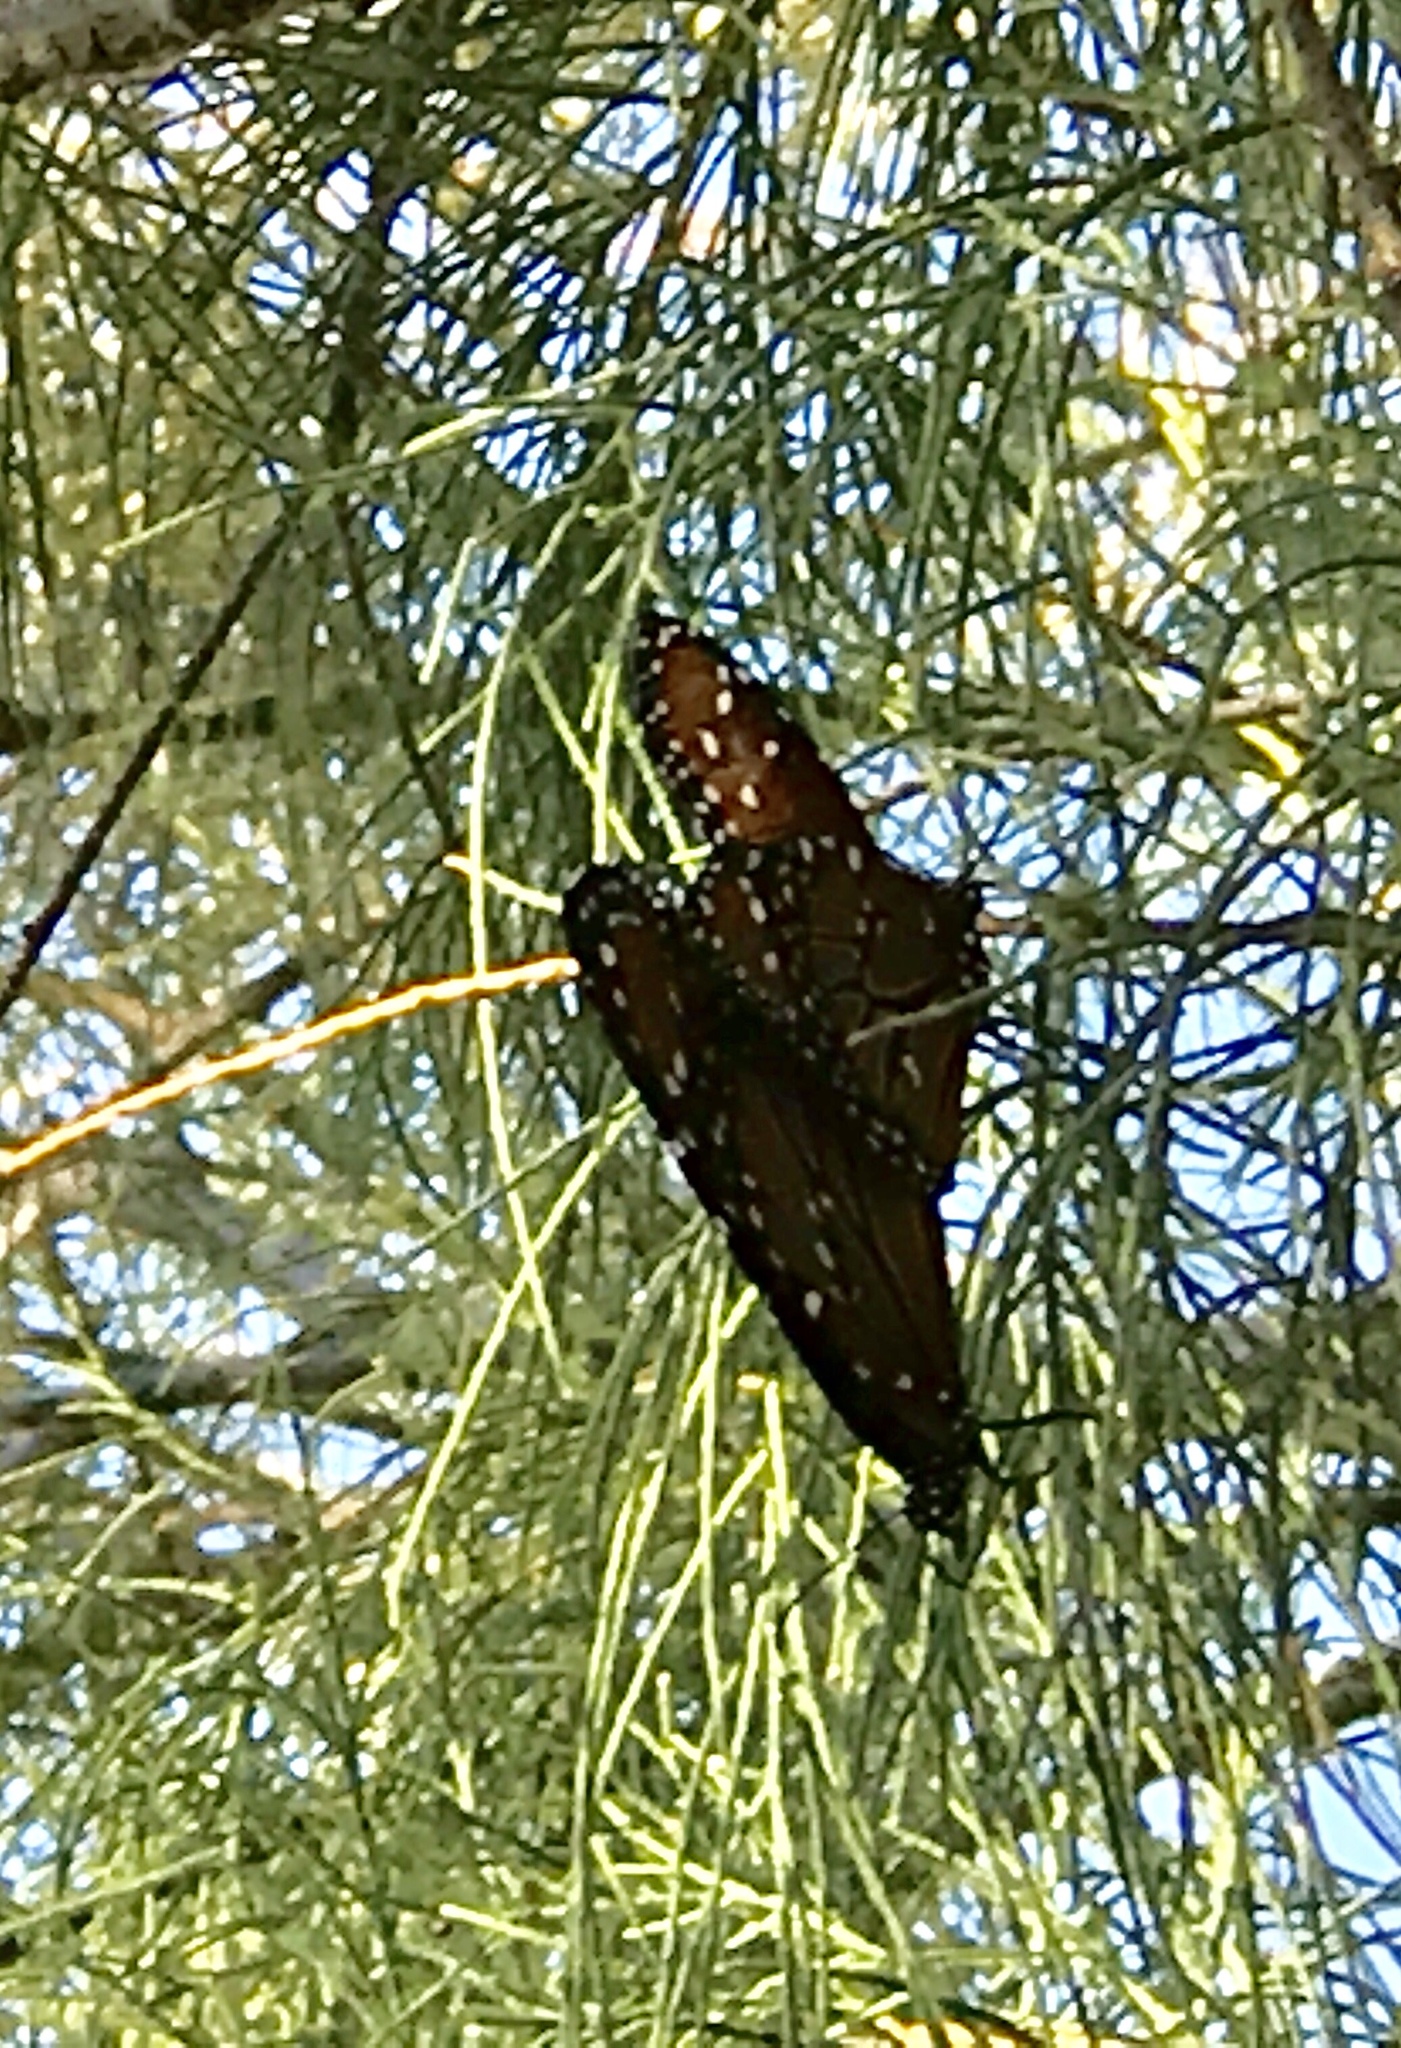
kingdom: Animalia
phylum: Arthropoda
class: Insecta
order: Lepidoptera
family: Nymphalidae
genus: Danaus
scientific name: Danaus gilippus
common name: Queen
